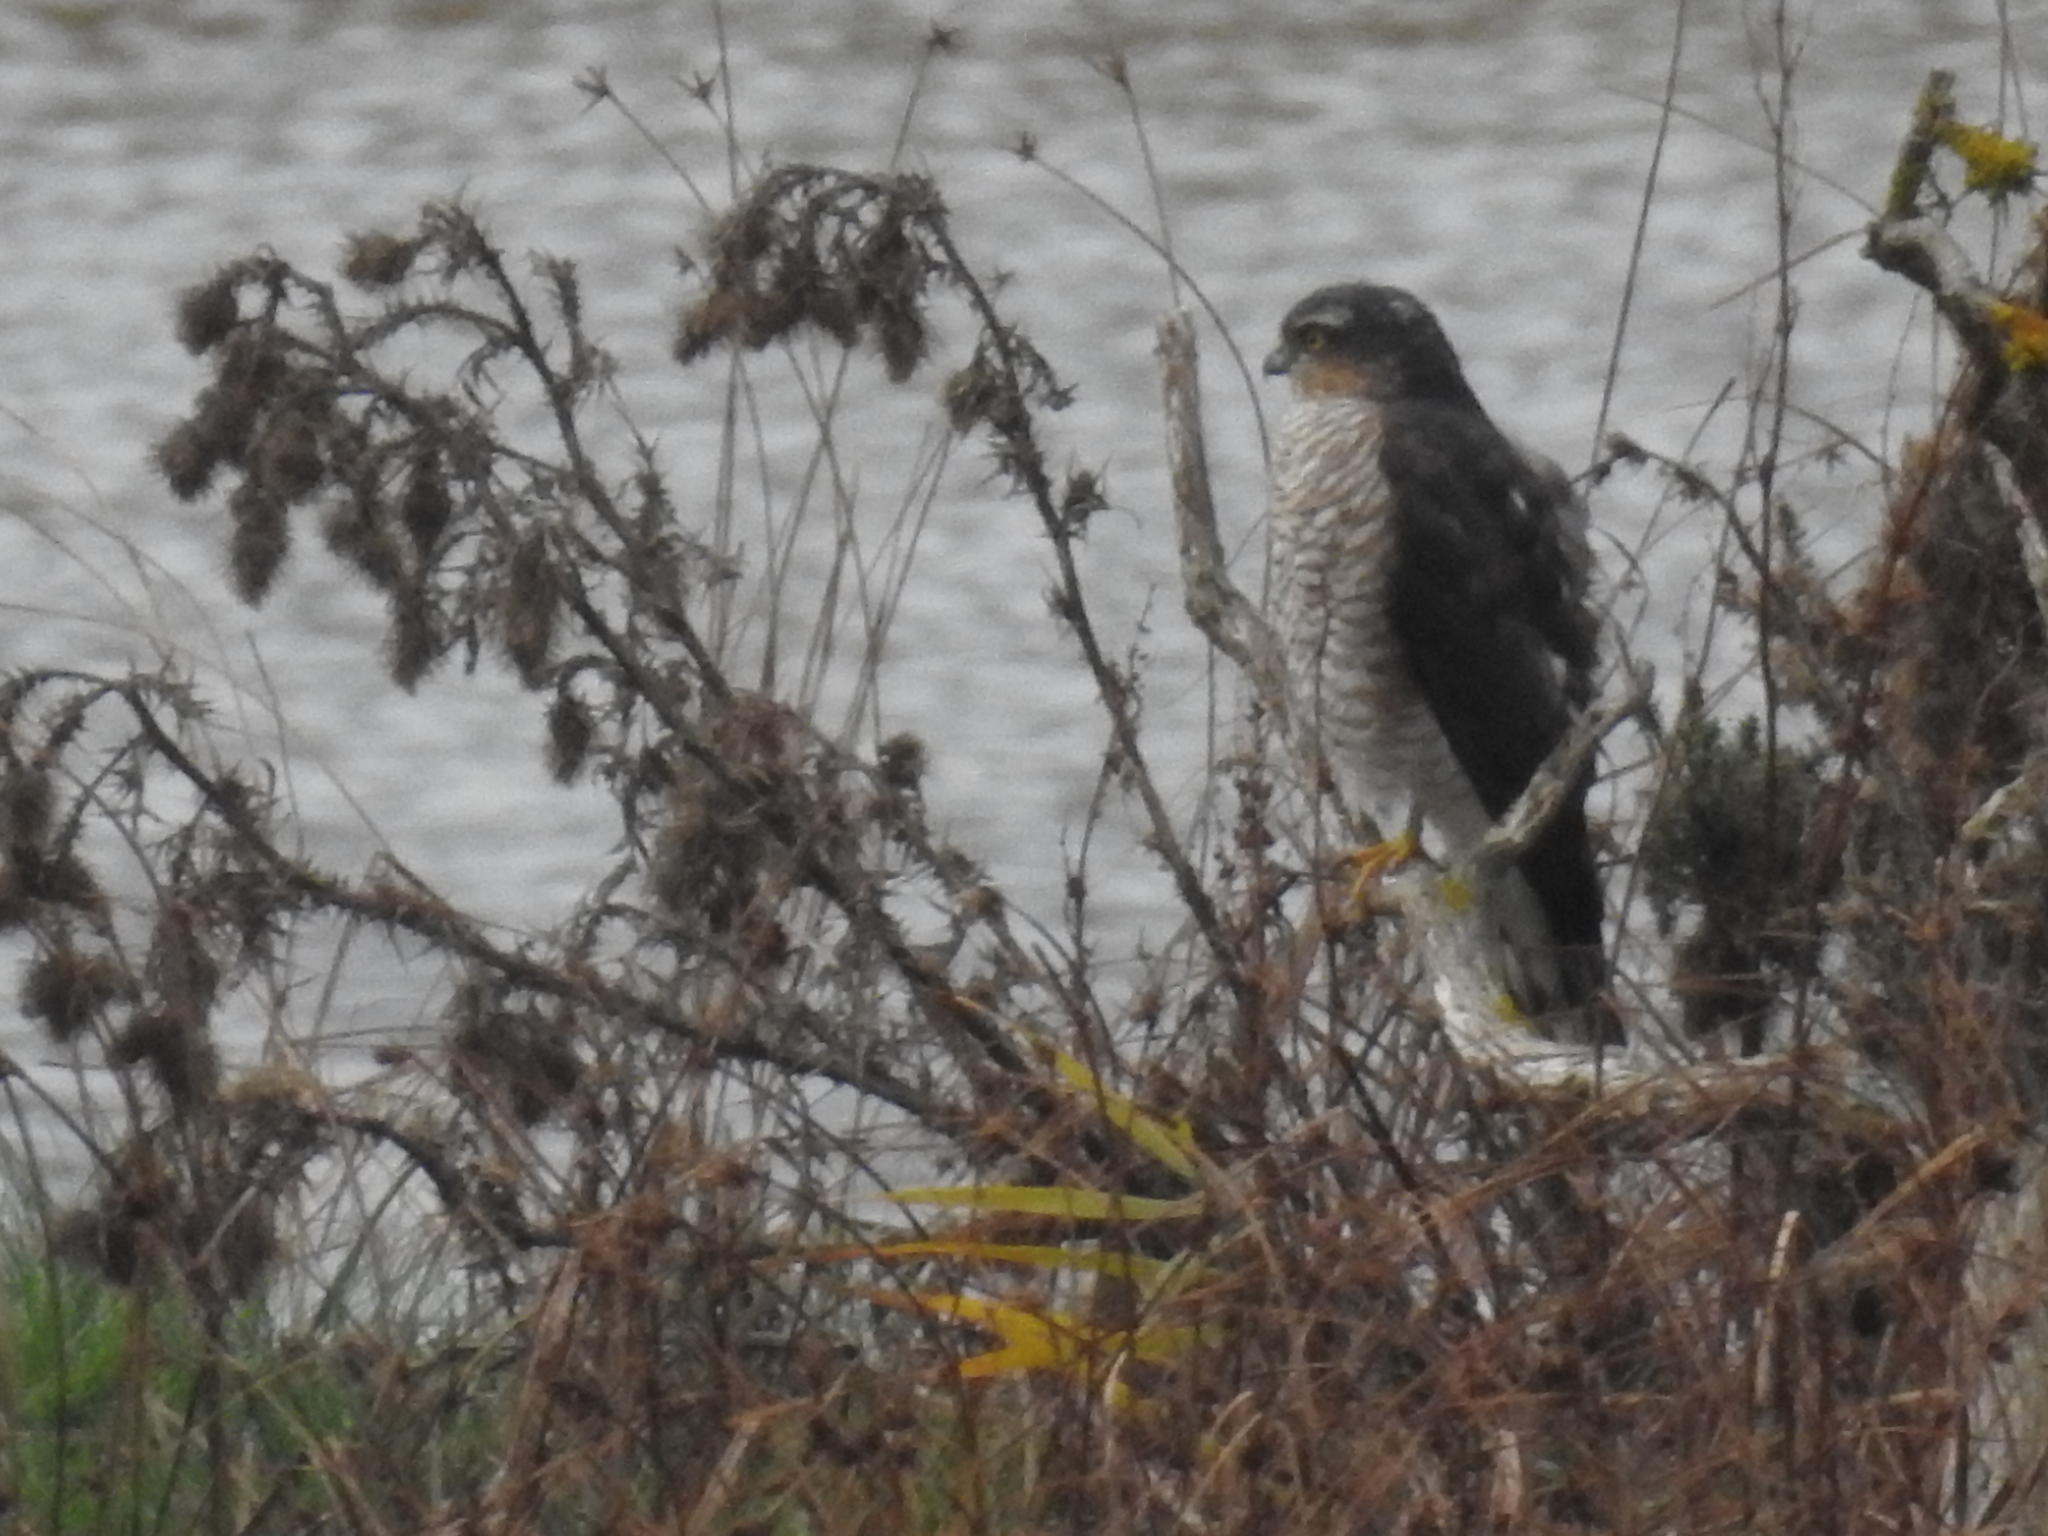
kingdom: Animalia
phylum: Chordata
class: Aves
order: Accipitriformes
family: Accipitridae
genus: Accipiter
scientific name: Accipiter nisus
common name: Eurasian sparrowhawk
